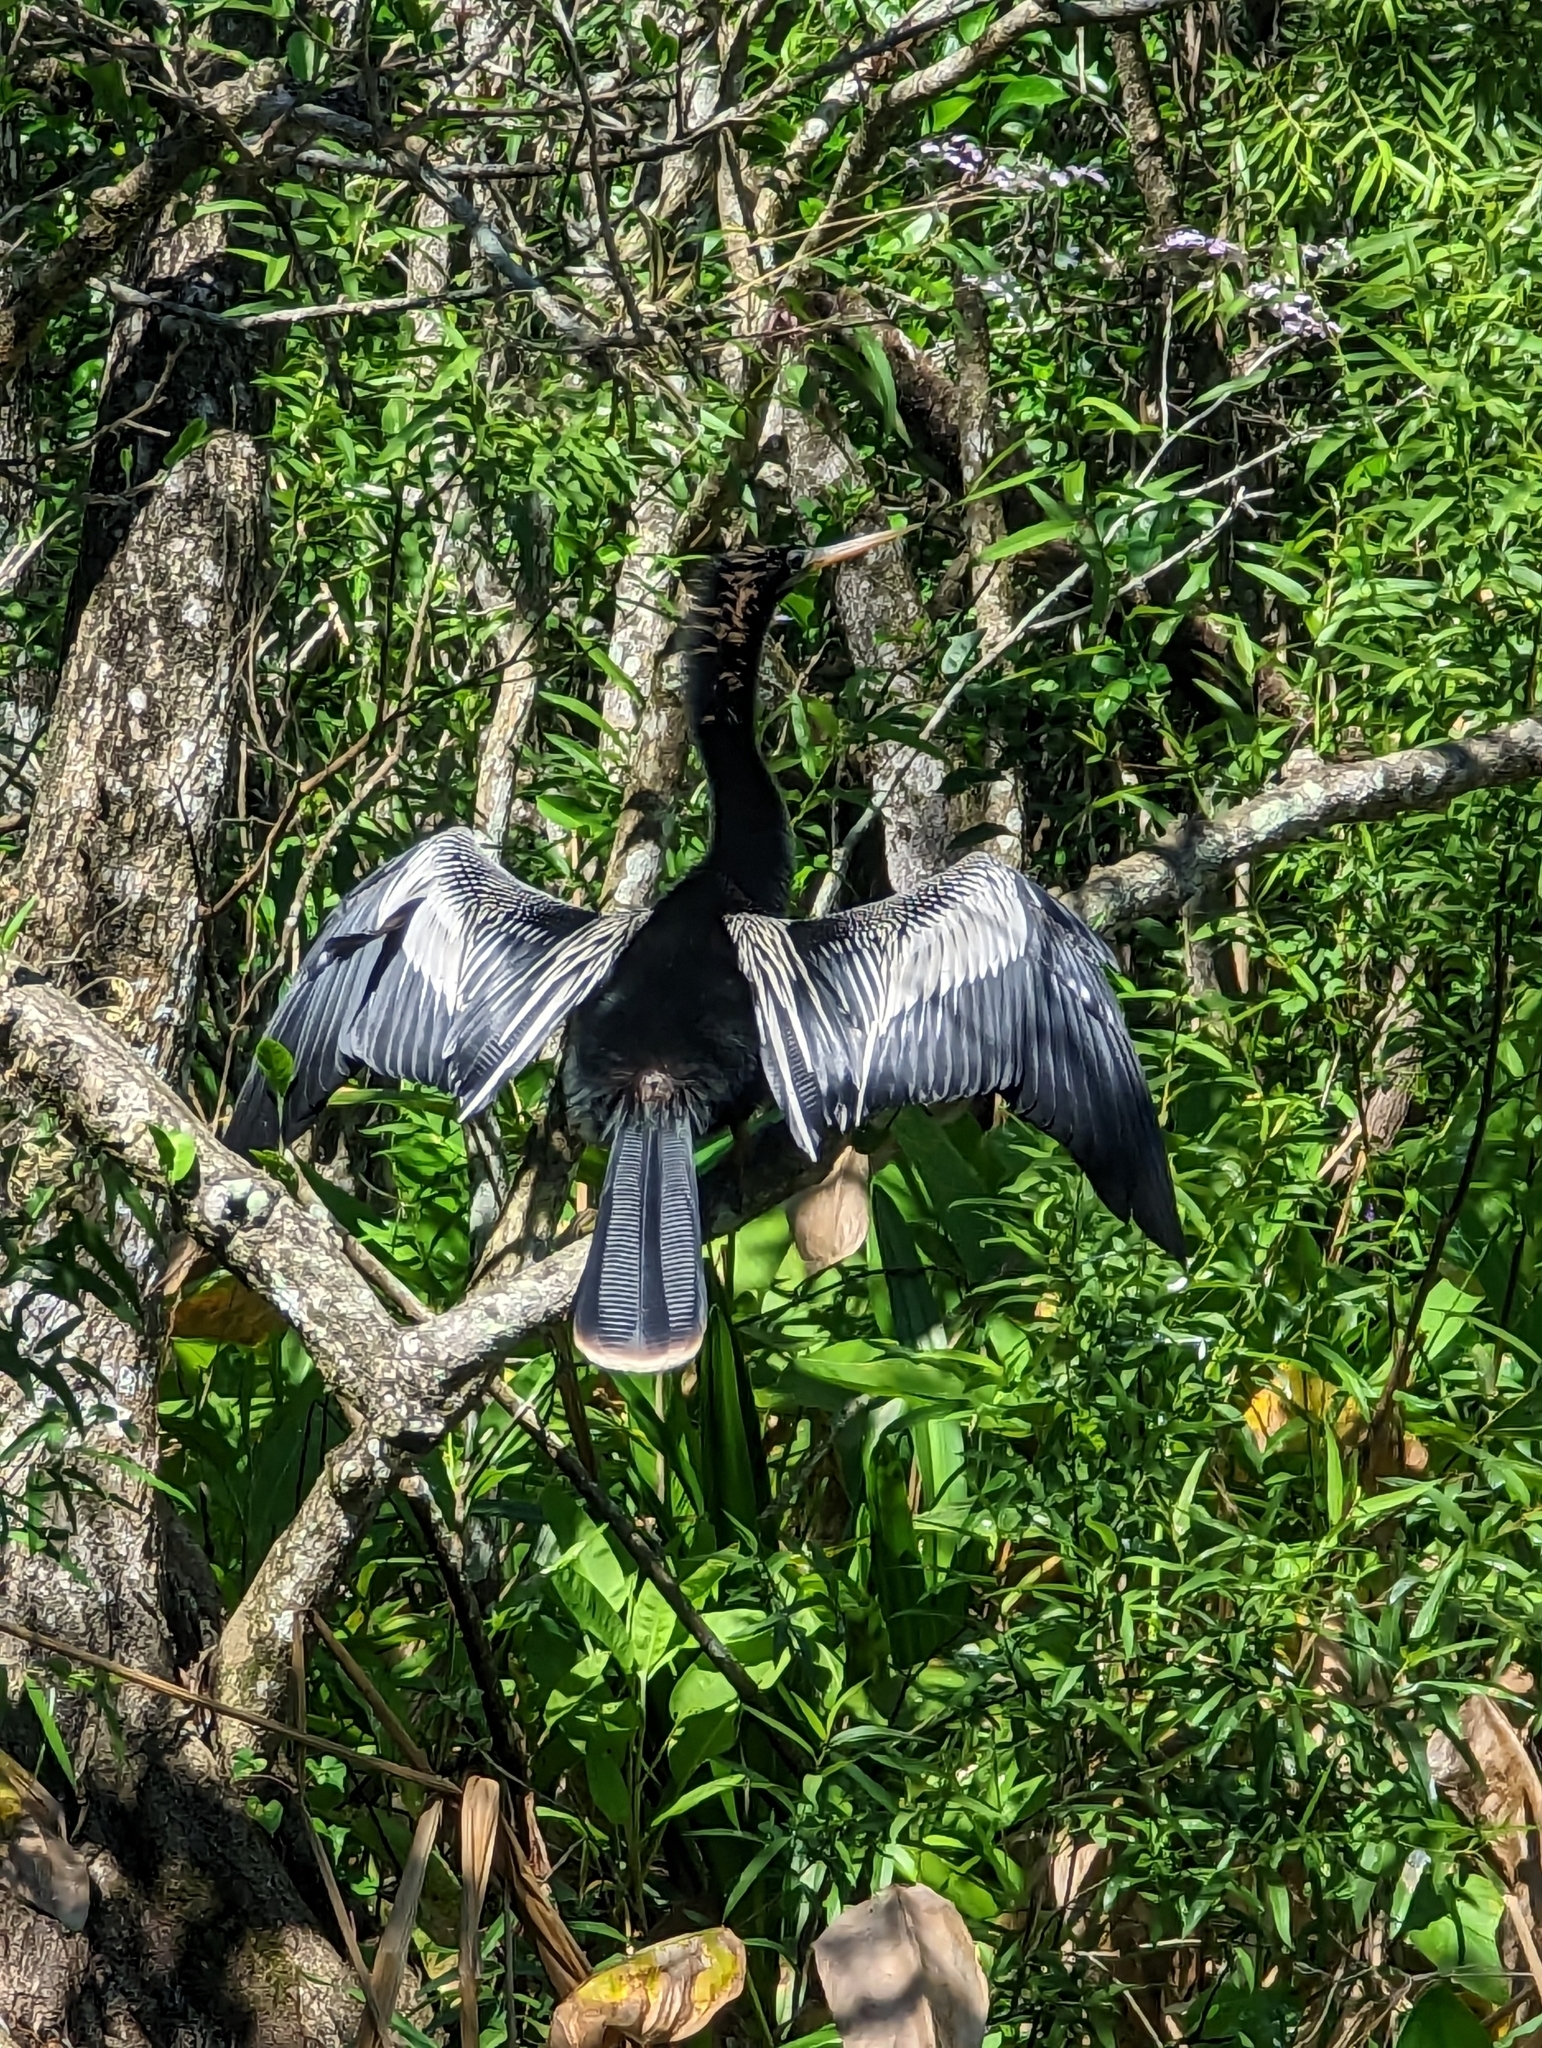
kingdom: Animalia
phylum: Chordata
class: Aves
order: Suliformes
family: Anhingidae
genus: Anhinga
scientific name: Anhinga anhinga
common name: Anhinga
